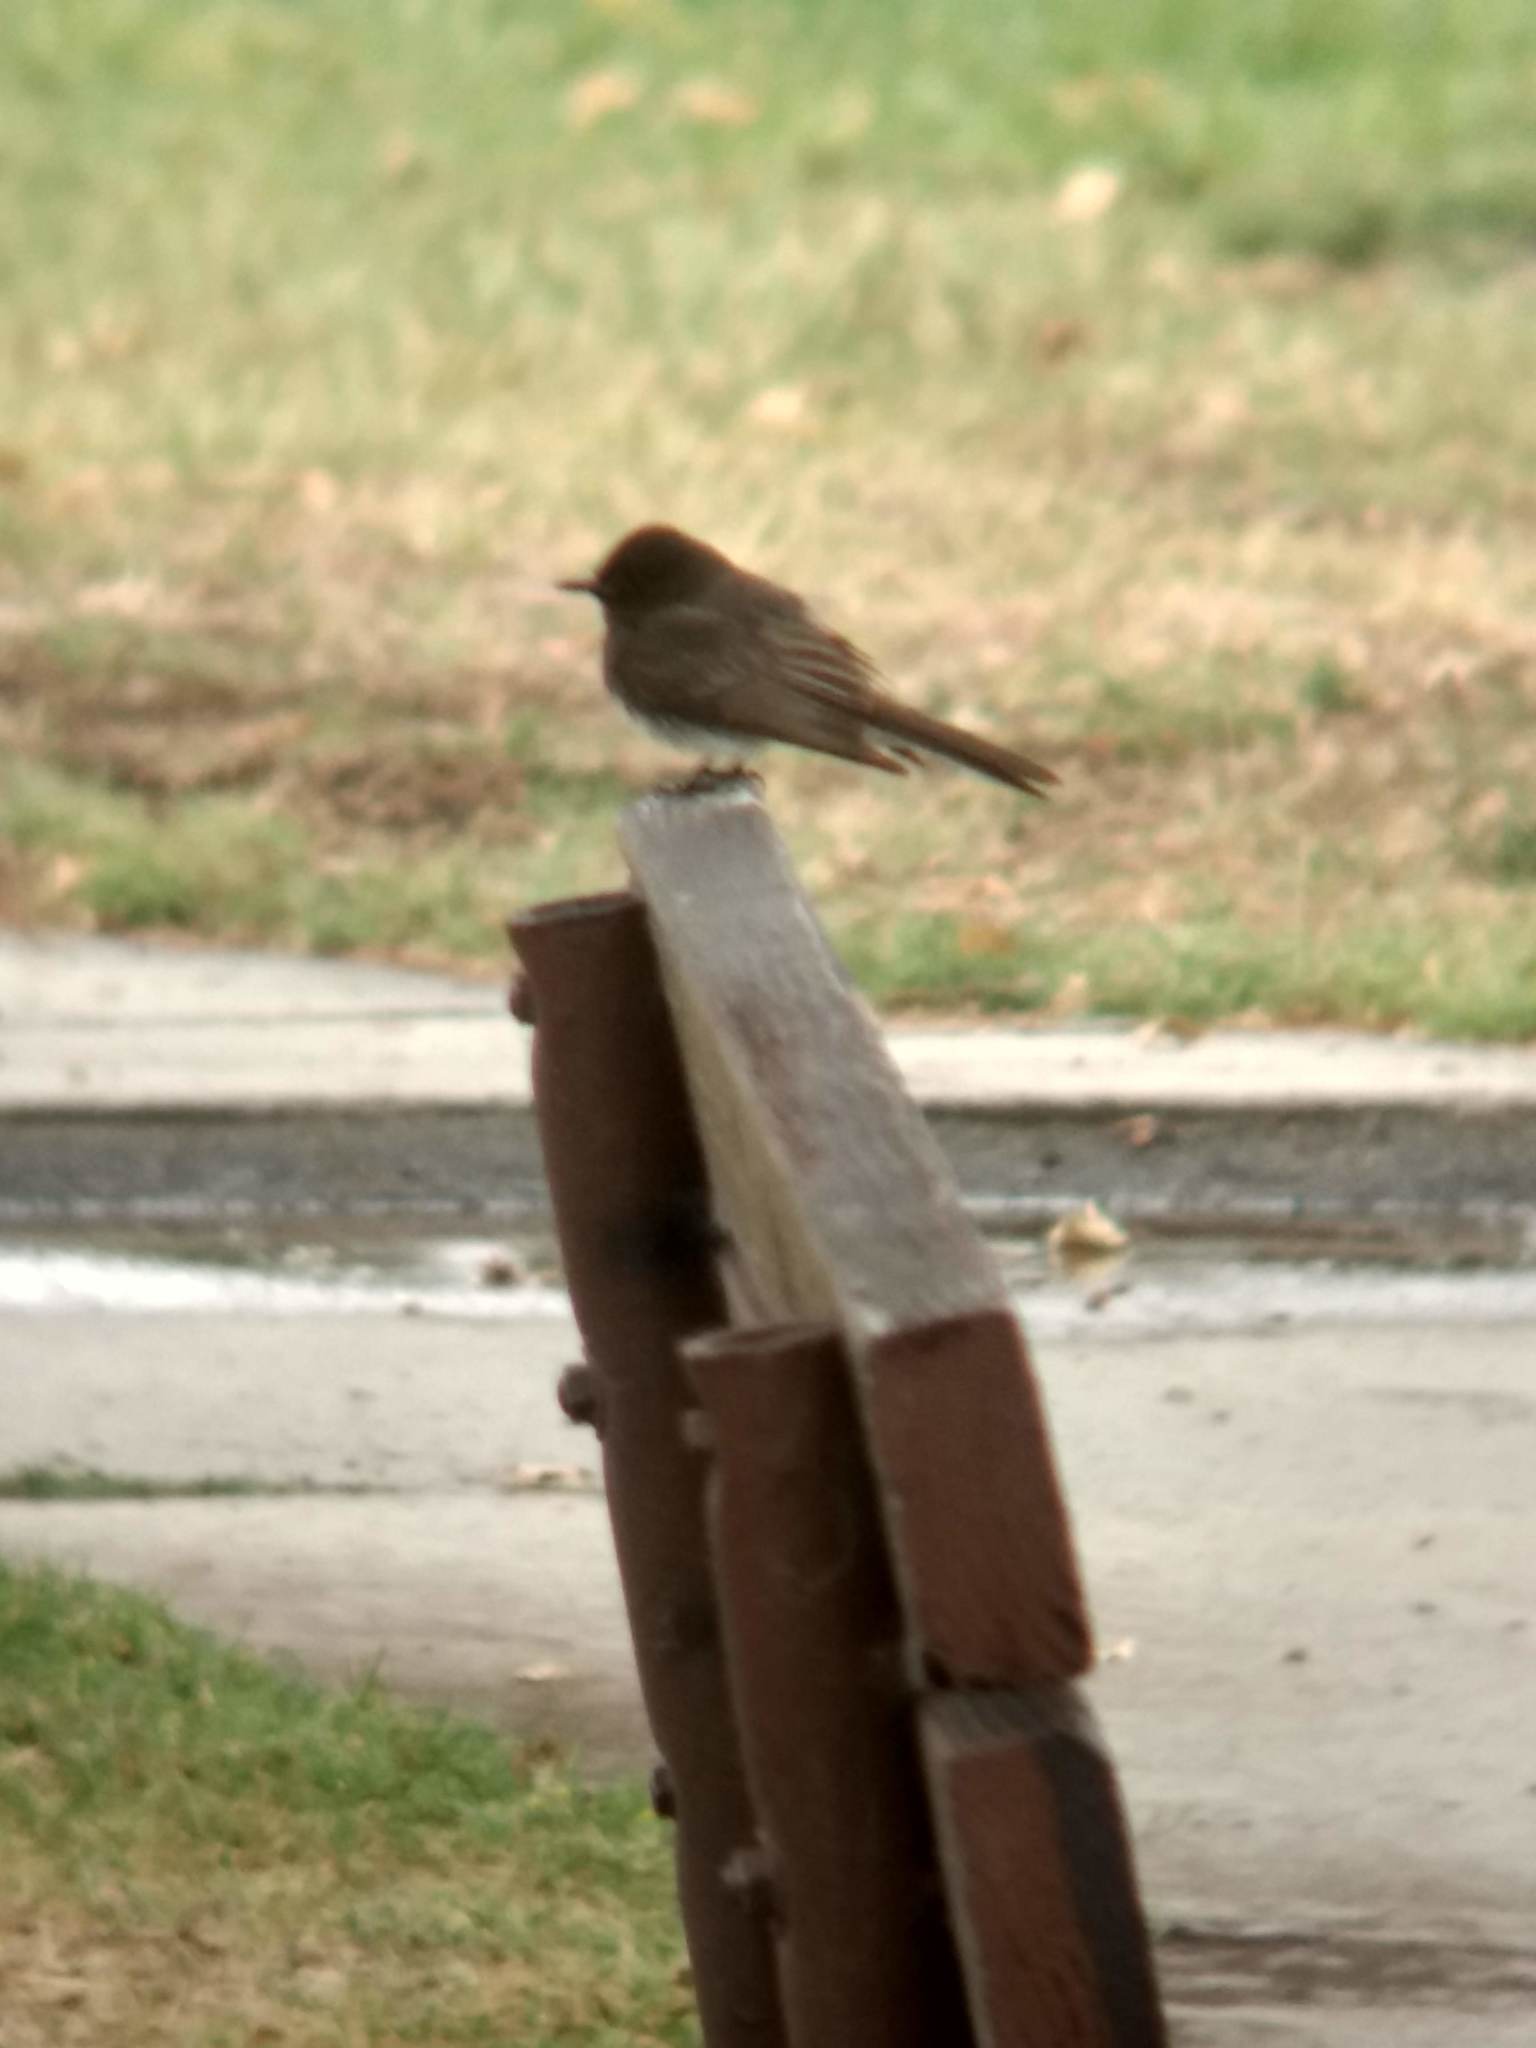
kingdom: Animalia
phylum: Chordata
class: Aves
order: Passeriformes
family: Tyrannidae
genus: Sayornis
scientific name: Sayornis nigricans
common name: Black phoebe
